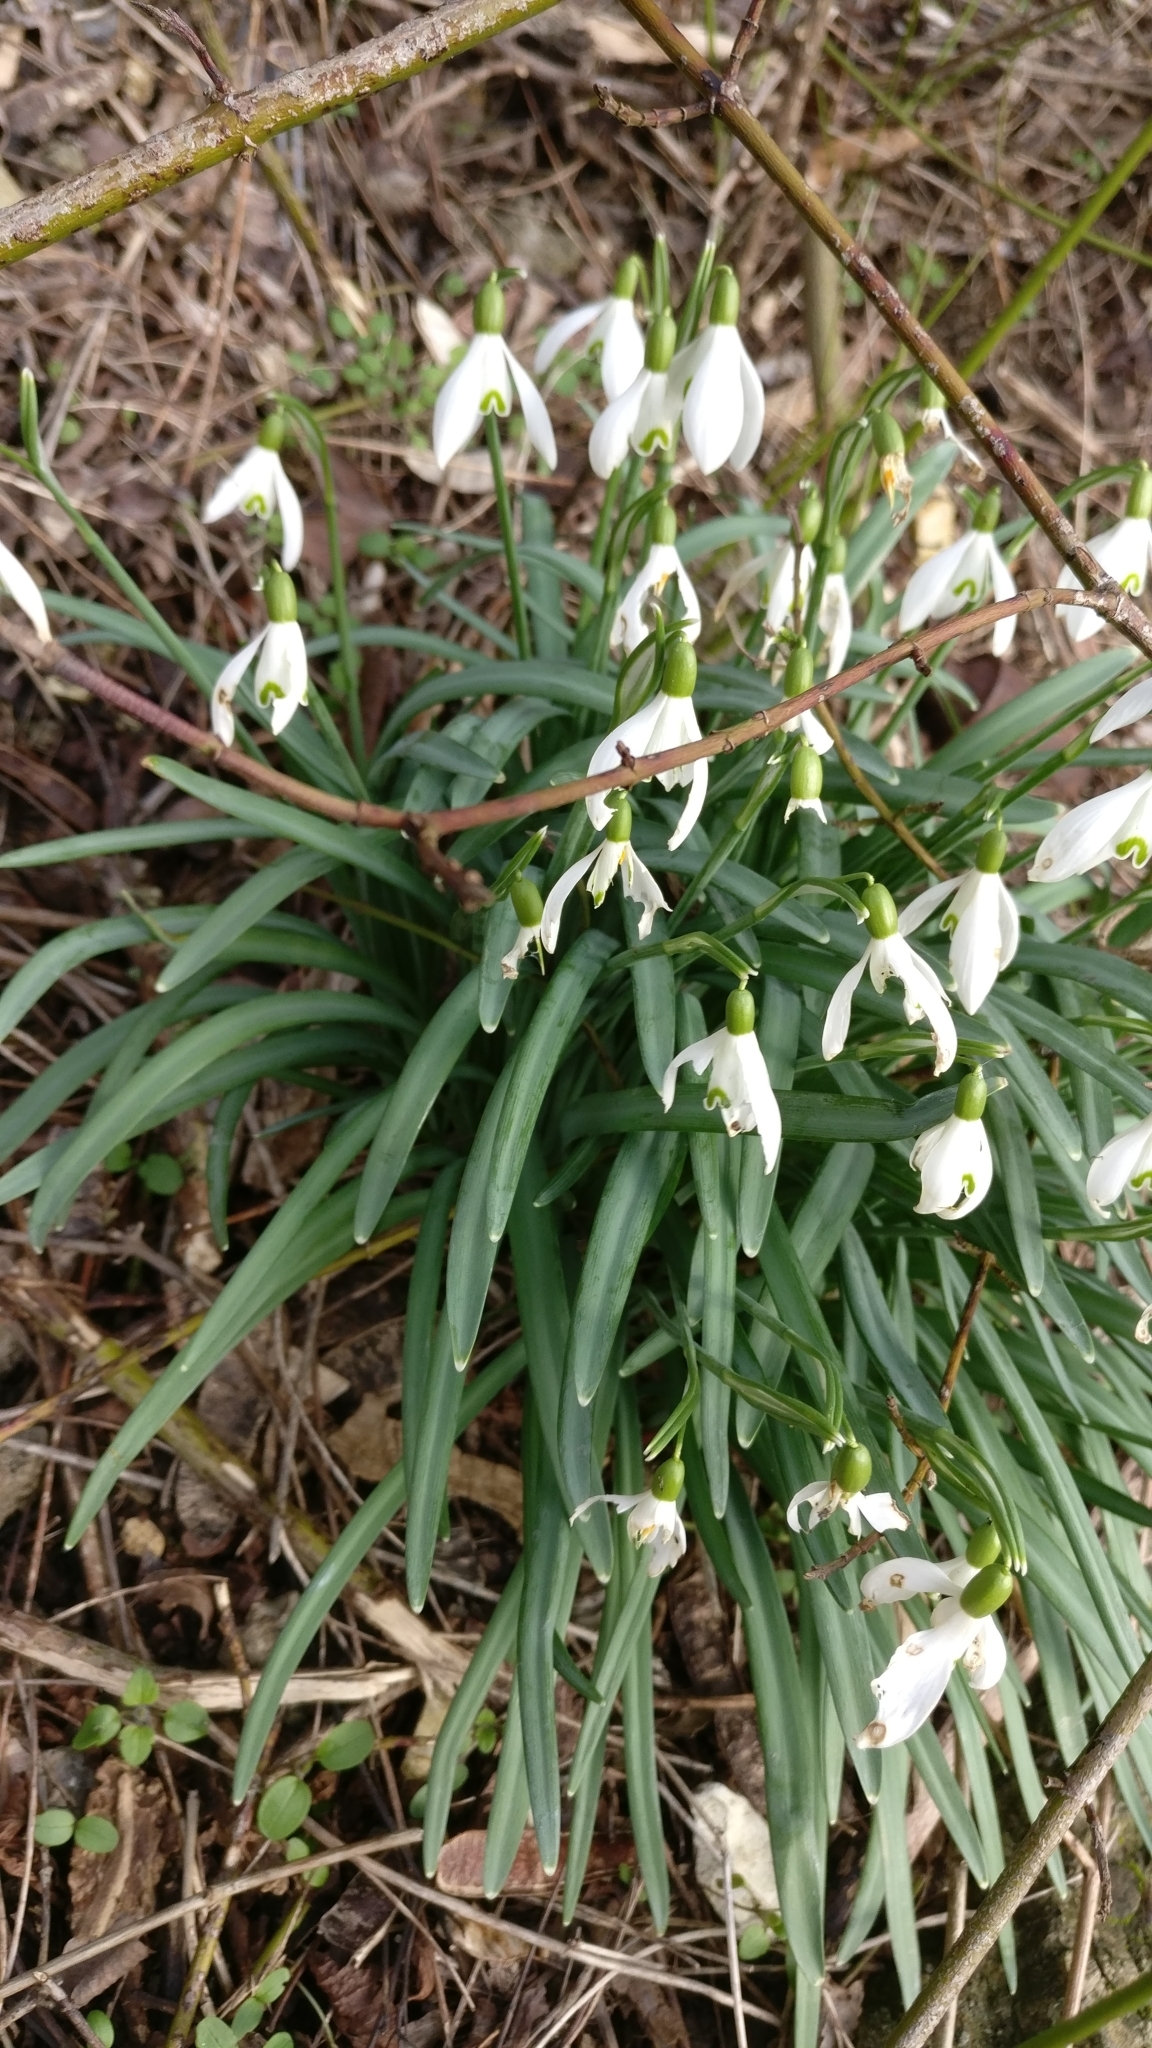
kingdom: Plantae
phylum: Tracheophyta
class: Liliopsida
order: Asparagales
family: Amaryllidaceae
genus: Galanthus
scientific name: Galanthus nivalis
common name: Snowdrop
